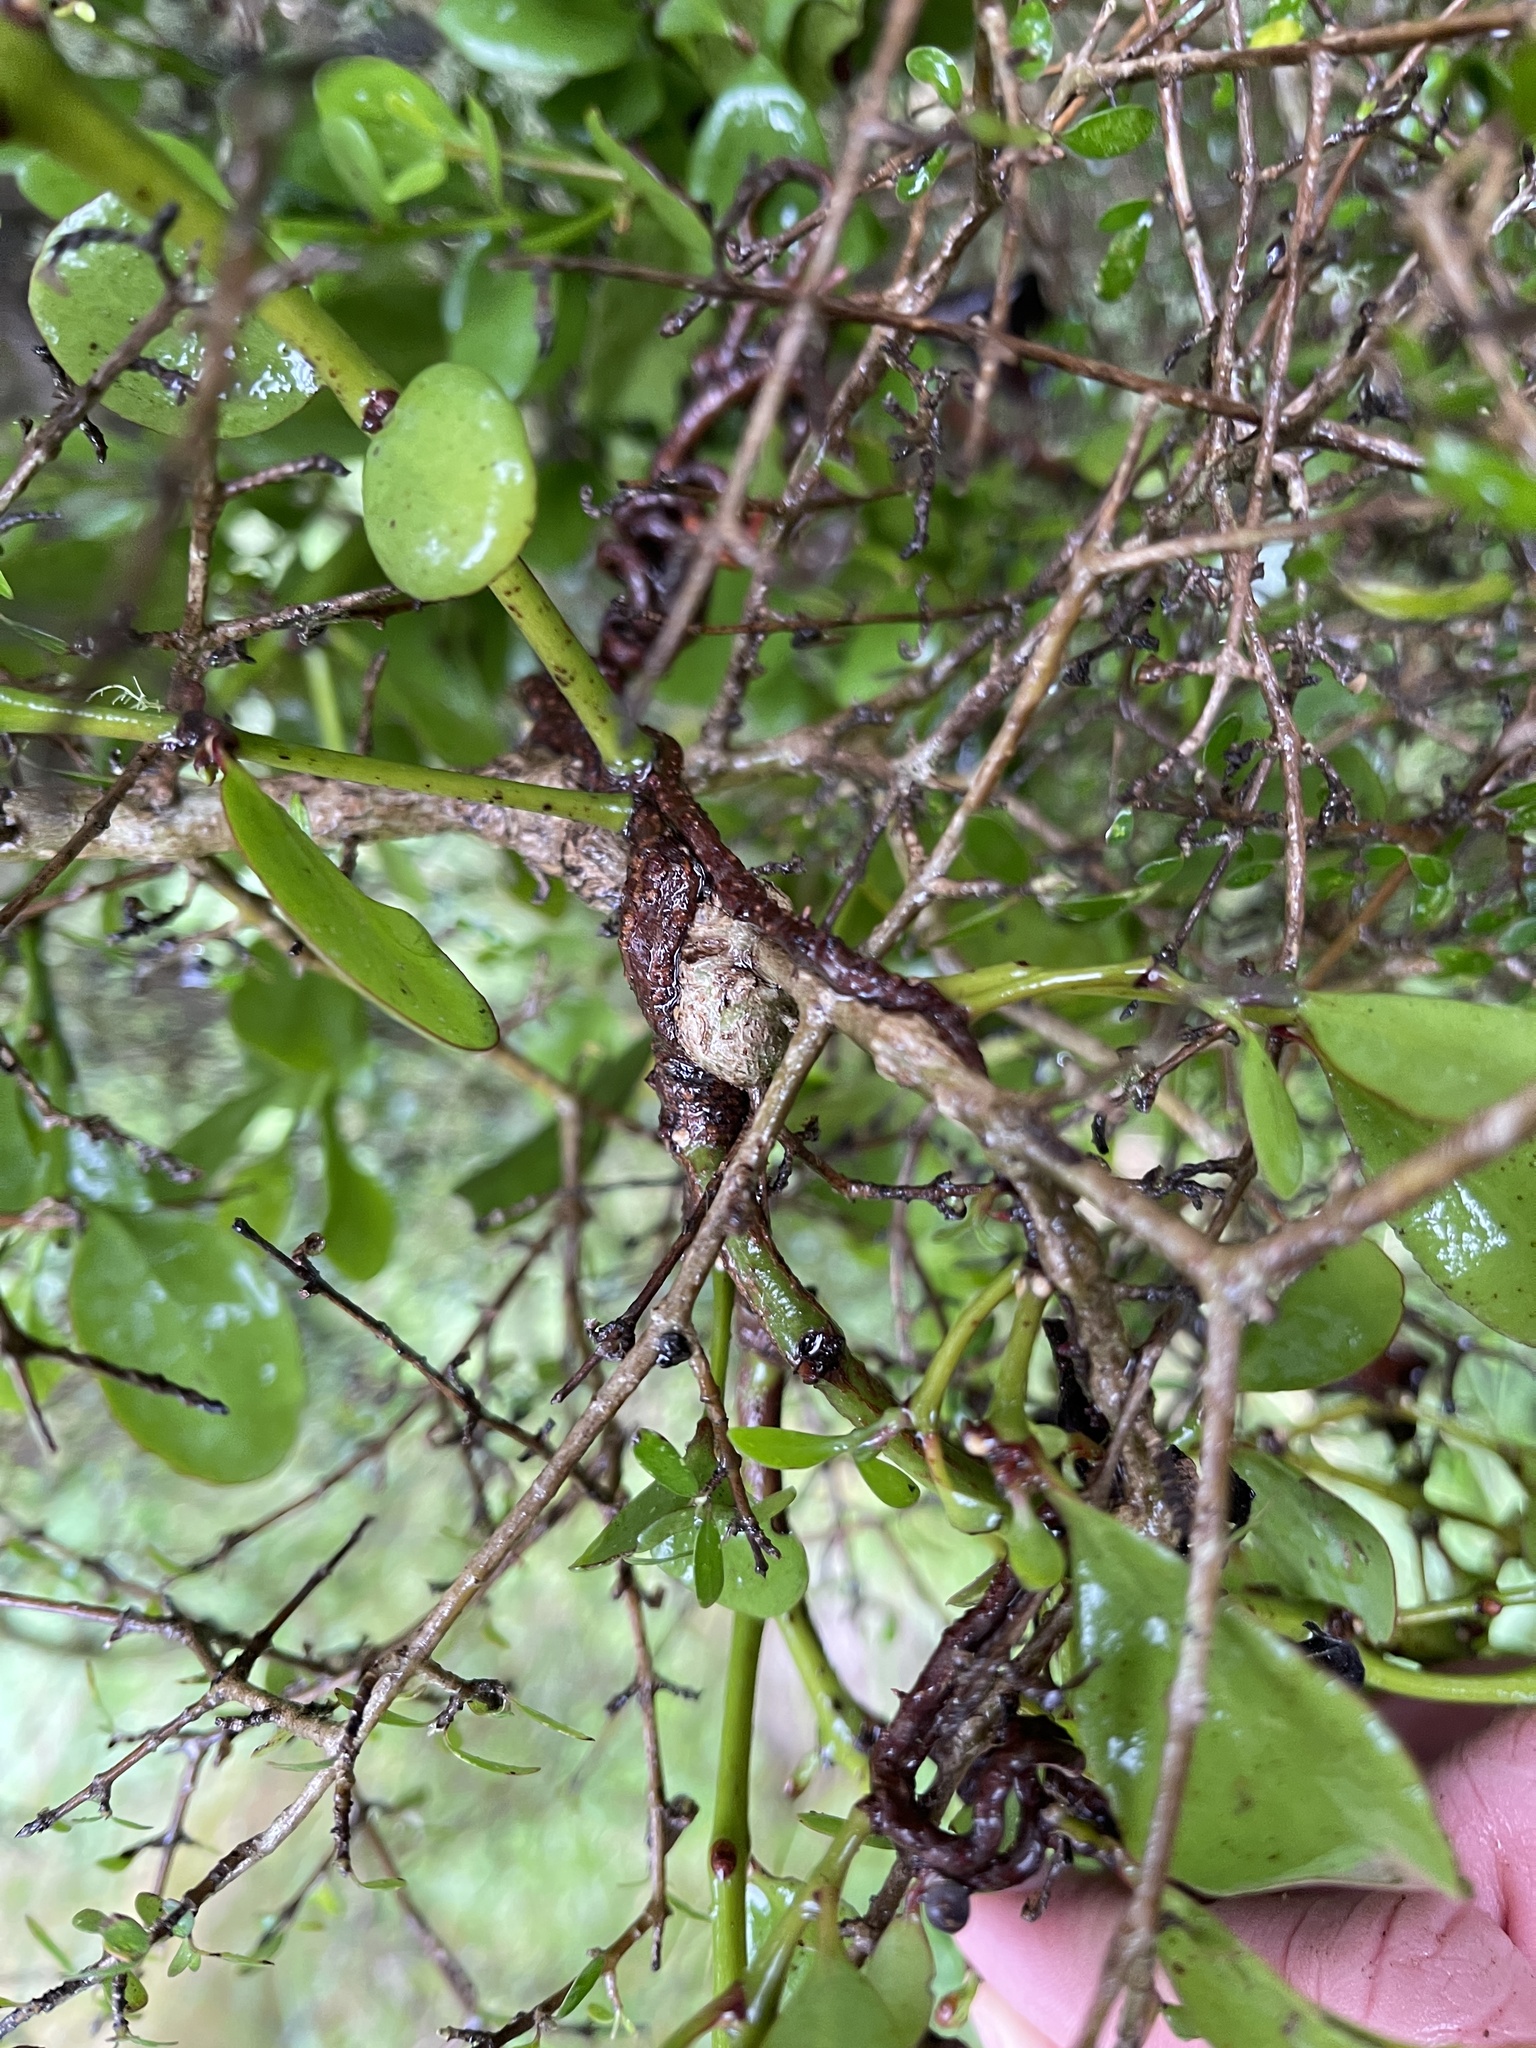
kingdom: Plantae
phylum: Tracheophyta
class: Magnoliopsida
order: Santalales
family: Loranthaceae
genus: Ileostylus
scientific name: Ileostylus micranthus
